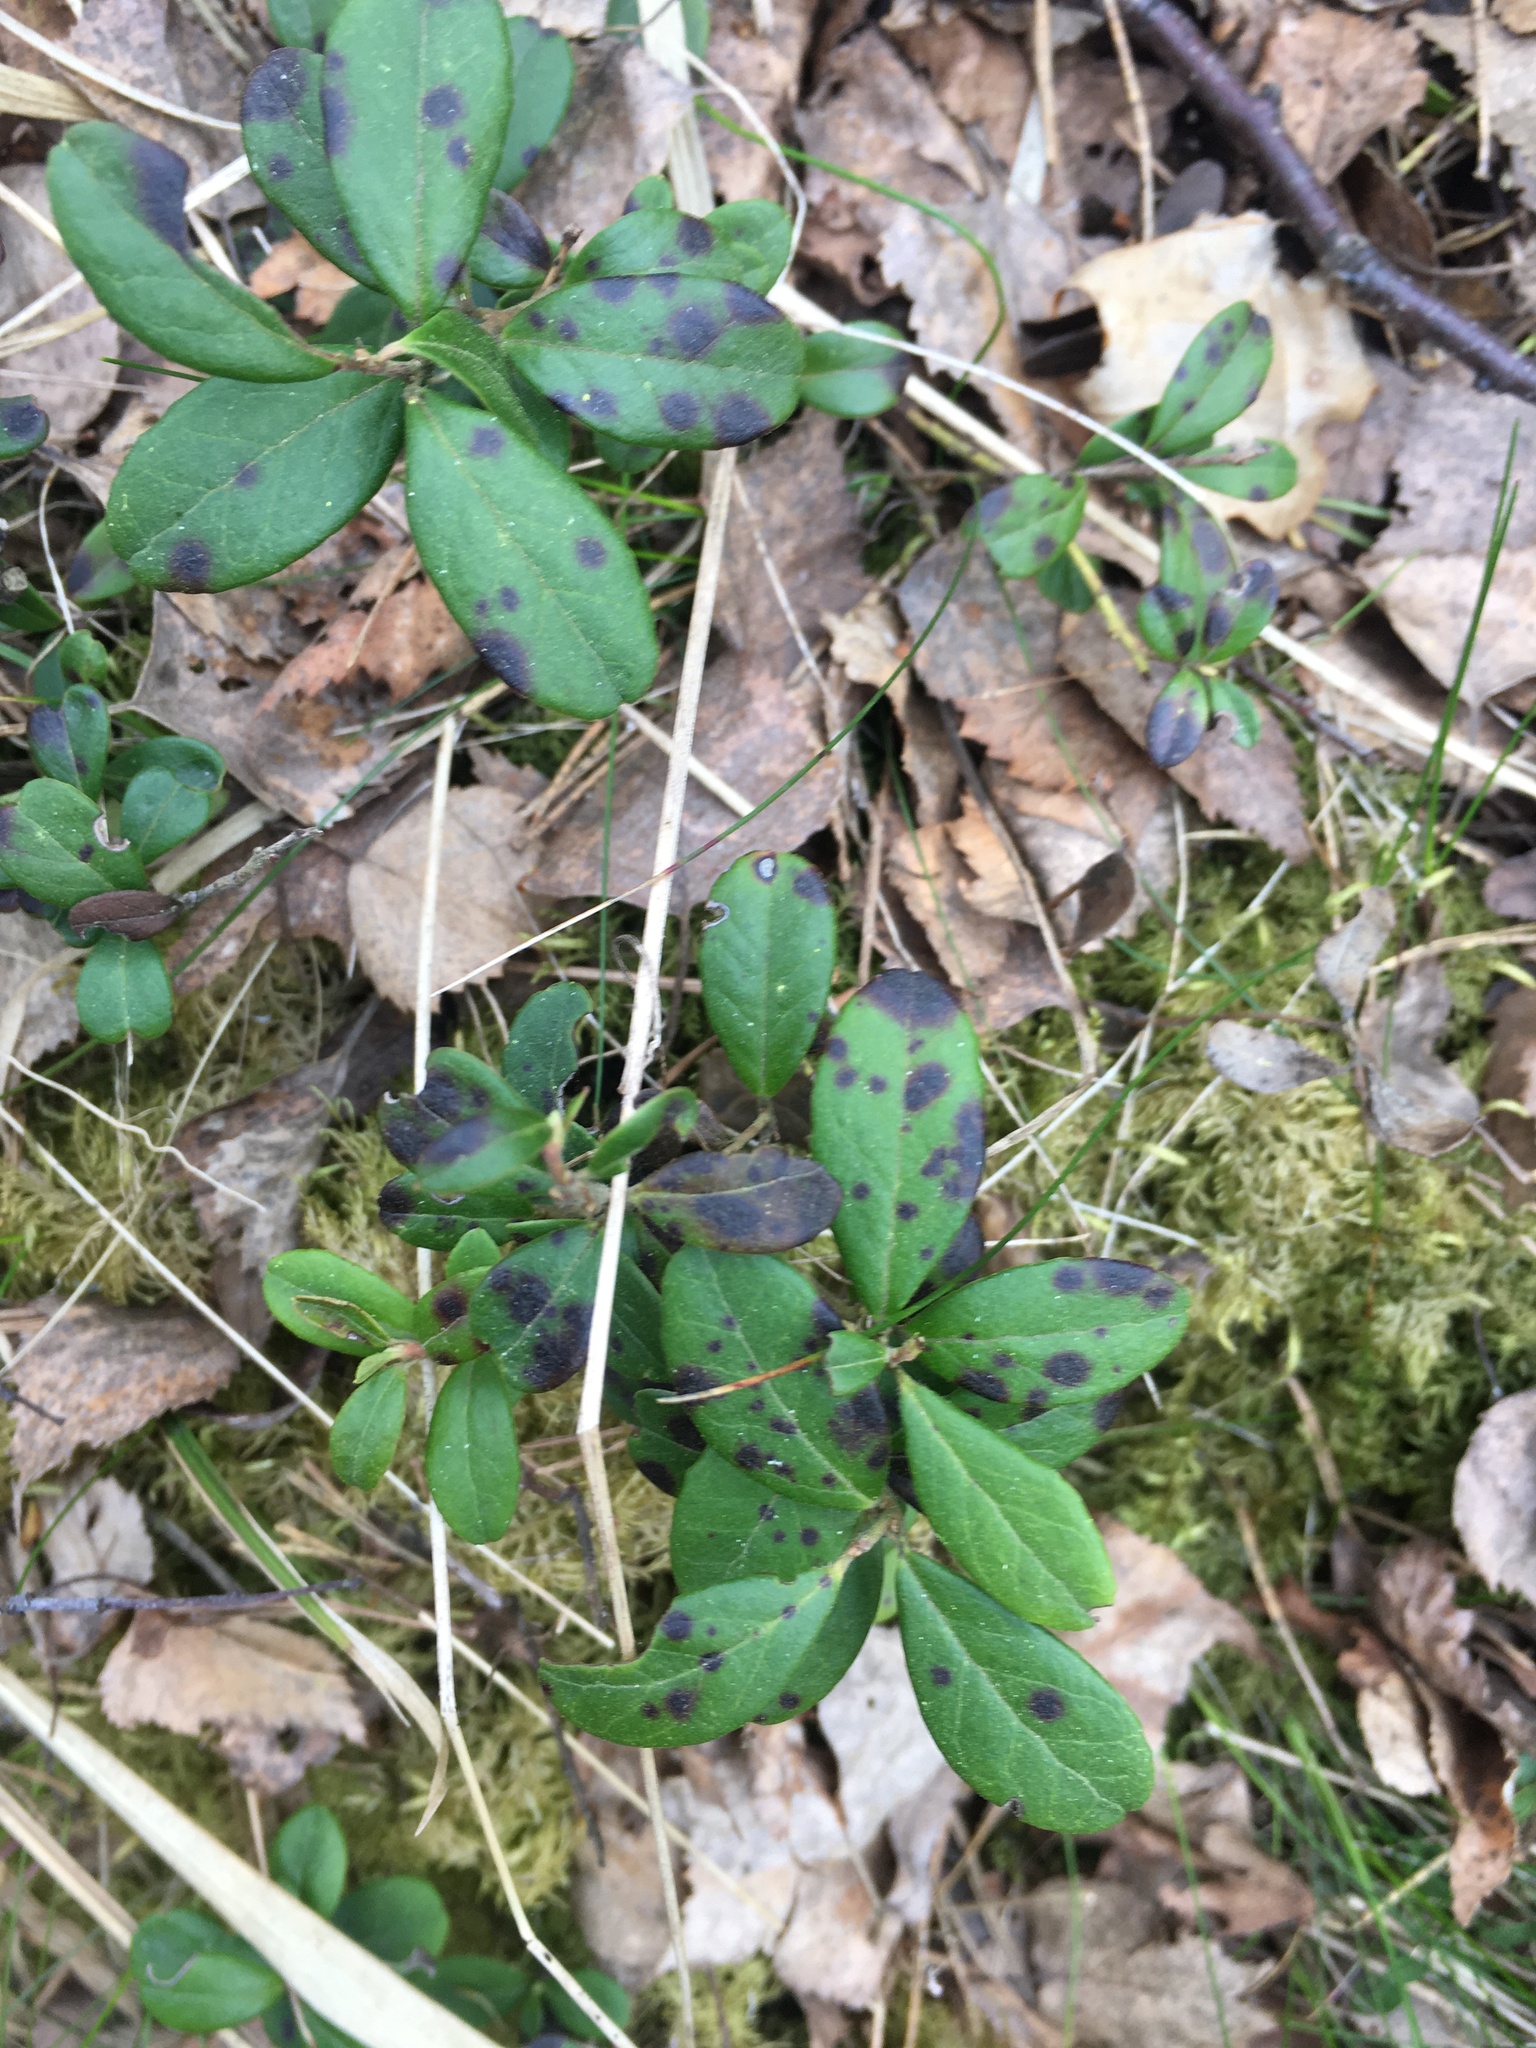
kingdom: Plantae
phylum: Tracheophyta
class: Magnoliopsida
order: Ericales
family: Ericaceae
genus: Vaccinium
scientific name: Vaccinium vitis-idaea
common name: Cowberry
